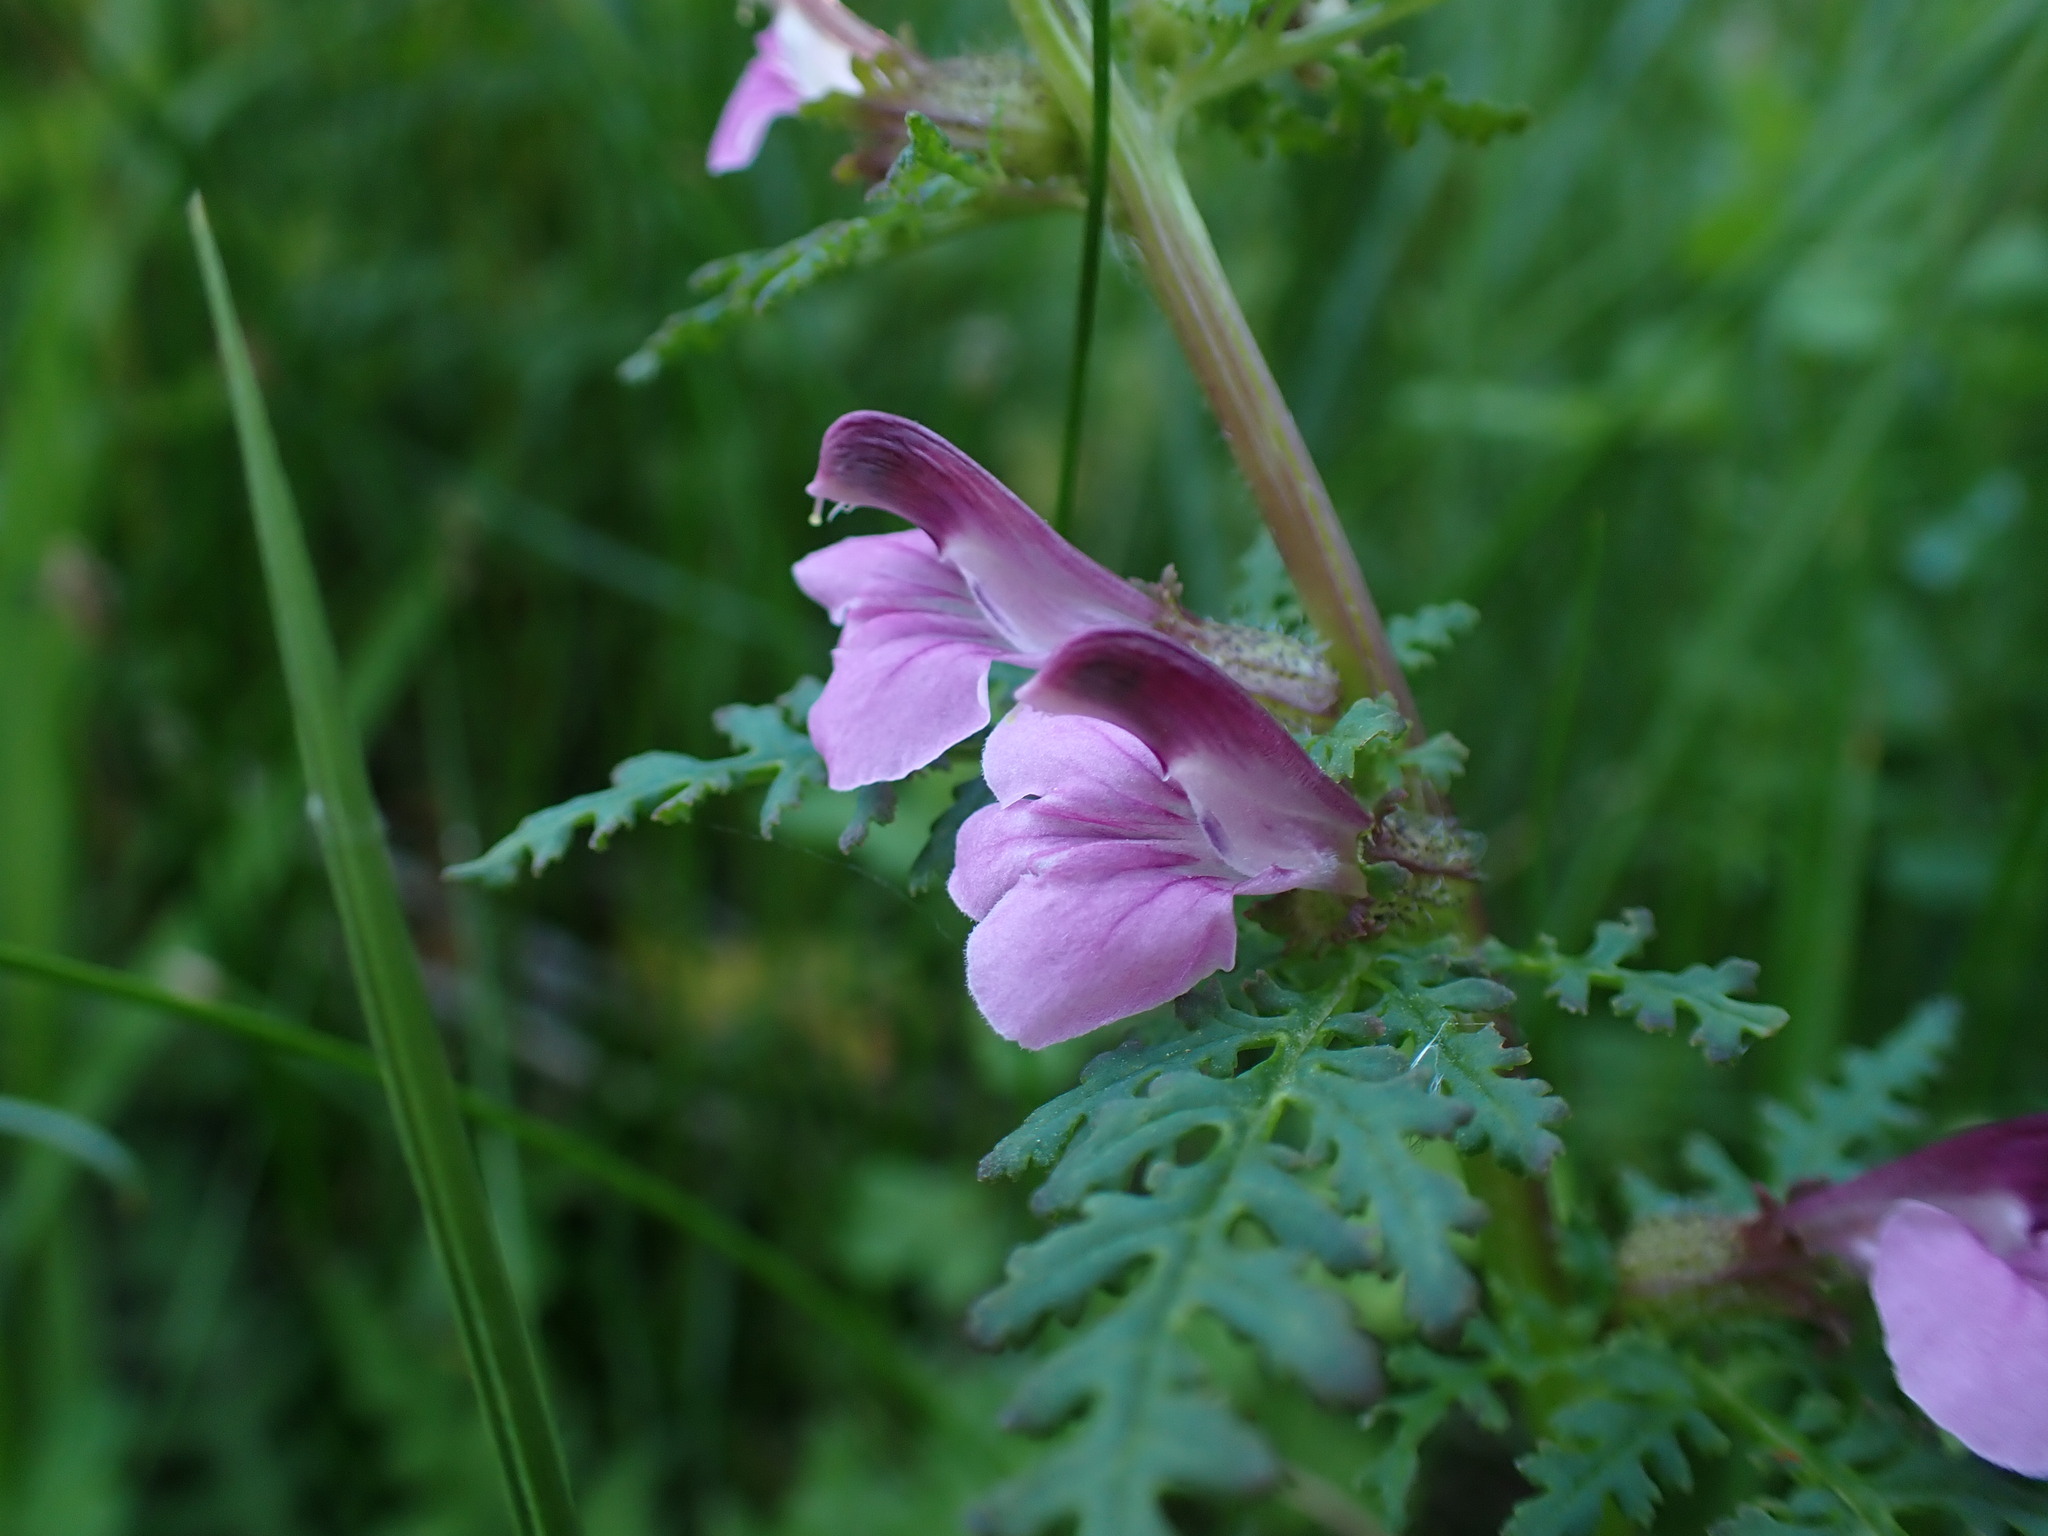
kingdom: Plantae
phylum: Tracheophyta
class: Magnoliopsida
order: Lamiales
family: Orobanchaceae
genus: Pedicularis
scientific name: Pedicularis palustris
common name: Marsh lousewort
